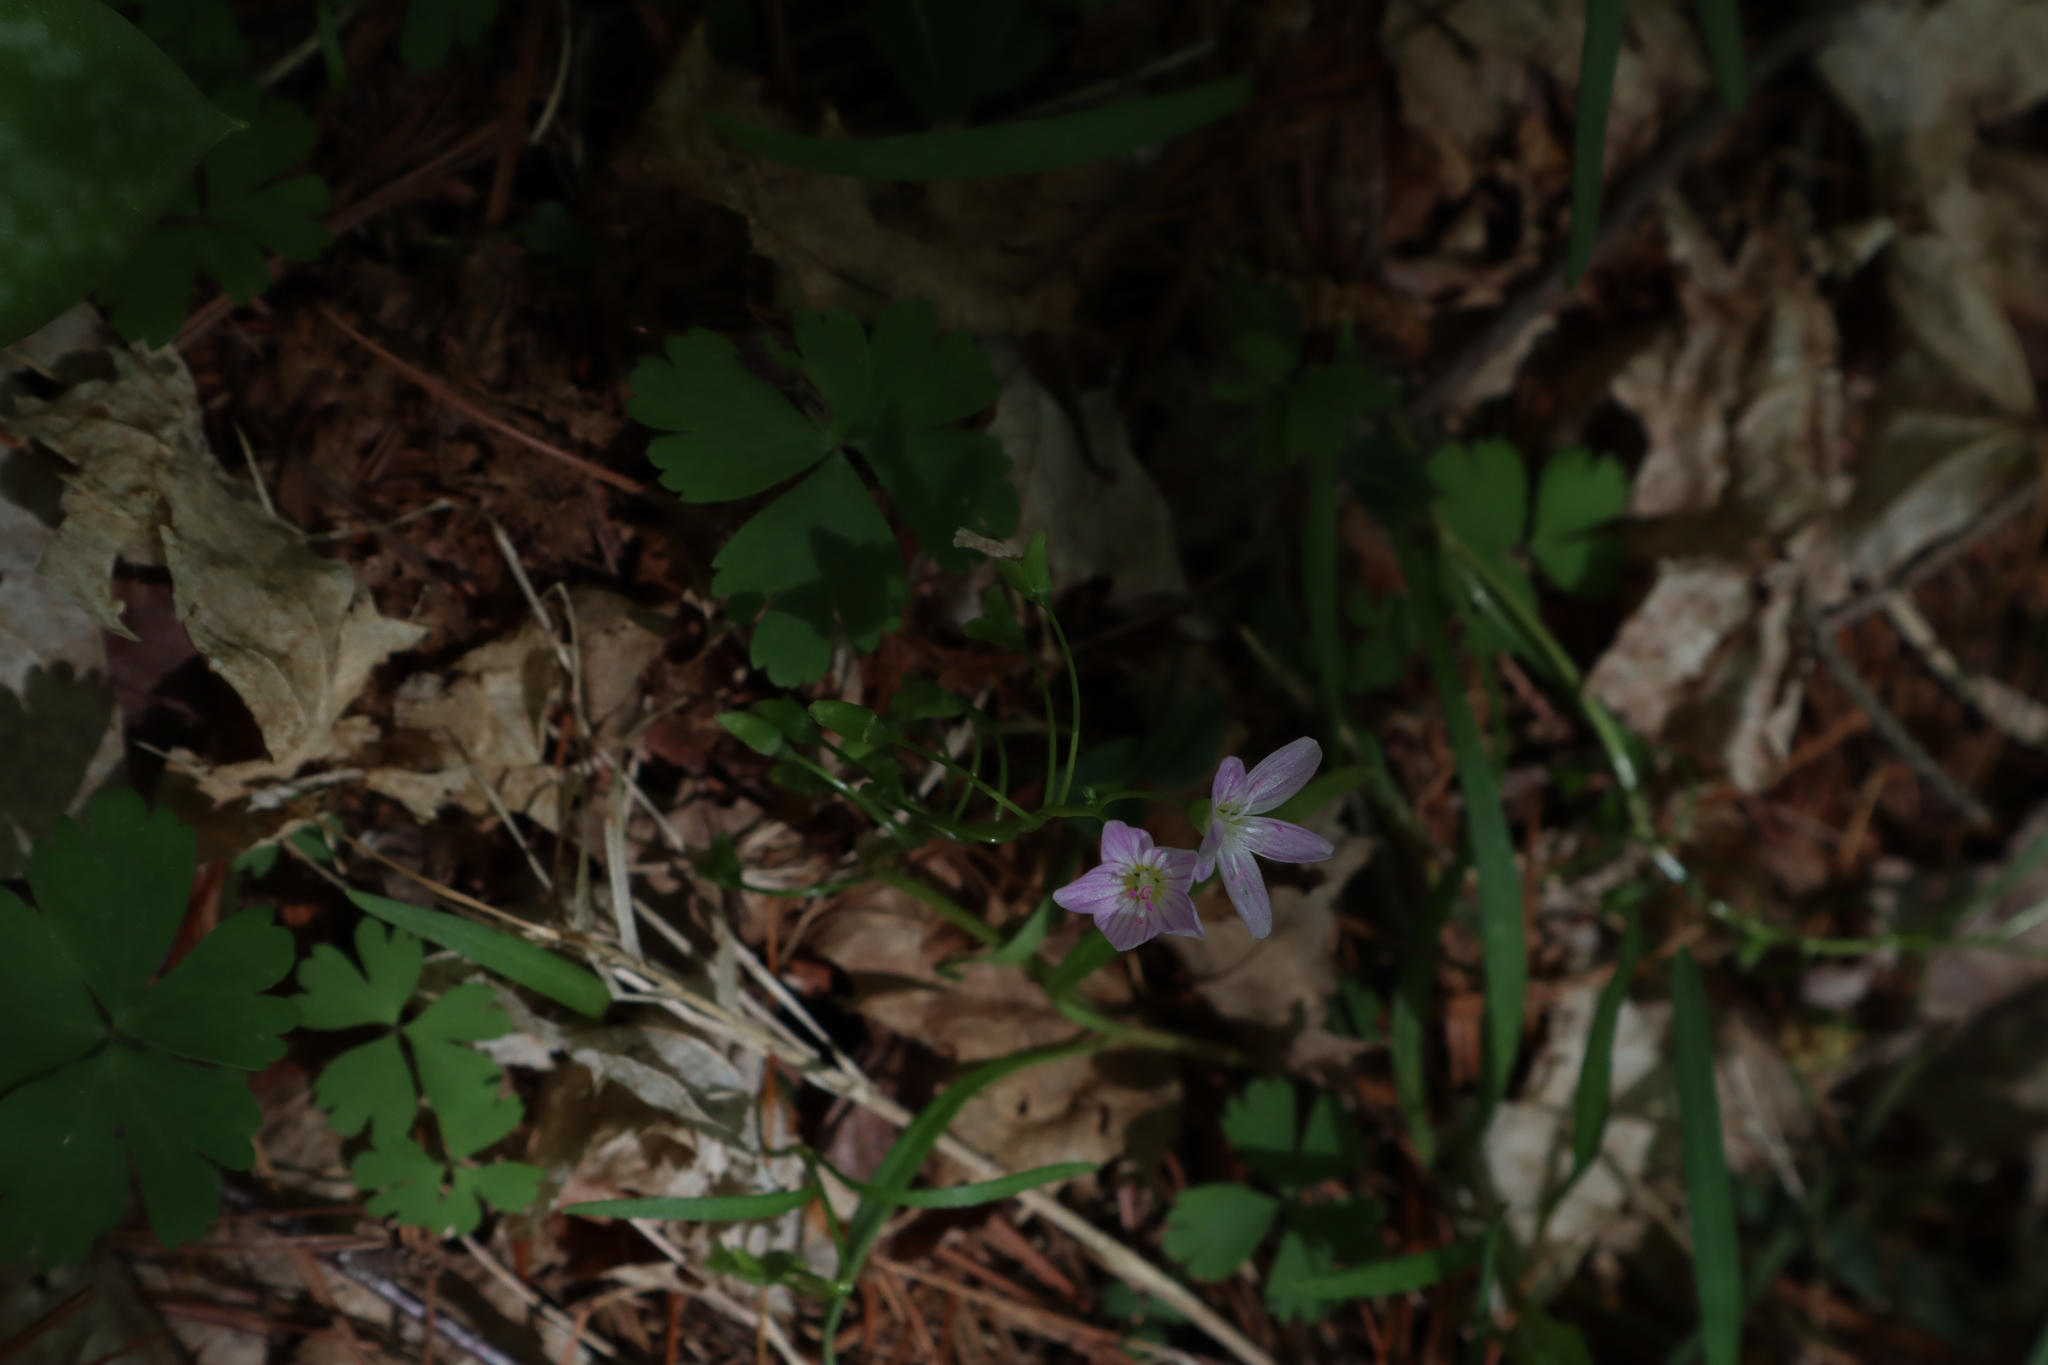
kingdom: Plantae
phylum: Tracheophyta
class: Magnoliopsida
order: Caryophyllales
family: Montiaceae
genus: Claytonia
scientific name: Claytonia virginica
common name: Virginia springbeauty
